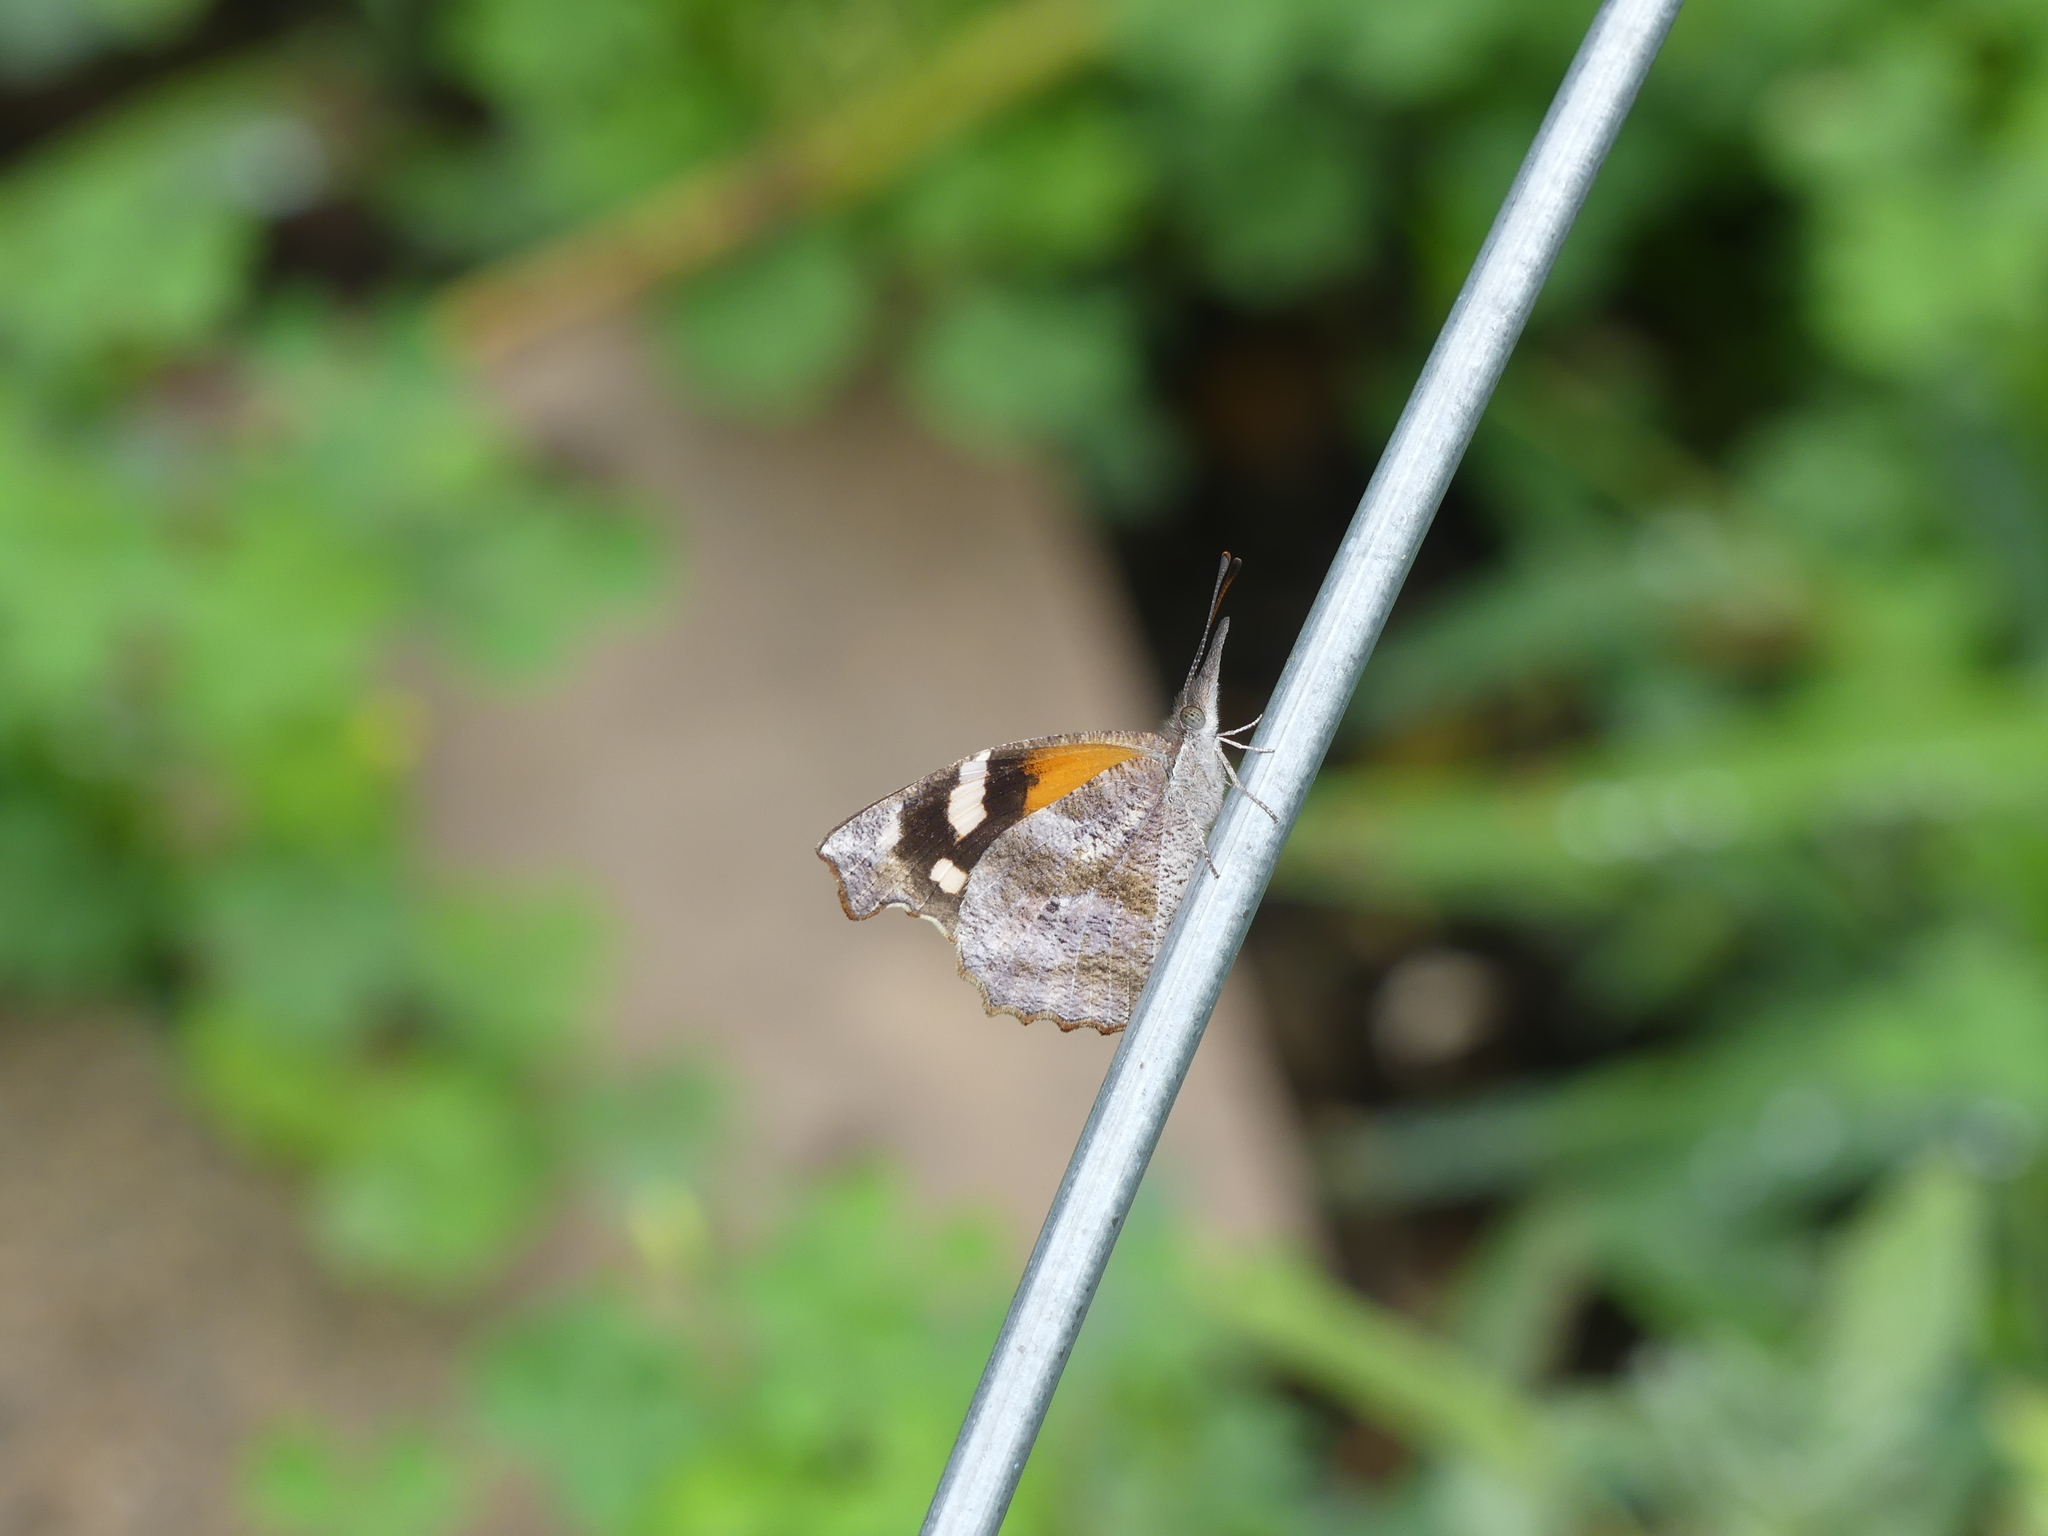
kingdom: Animalia
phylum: Arthropoda
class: Insecta
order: Lepidoptera
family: Nymphalidae
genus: Libytheana
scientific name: Libytheana carinenta
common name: American snout
